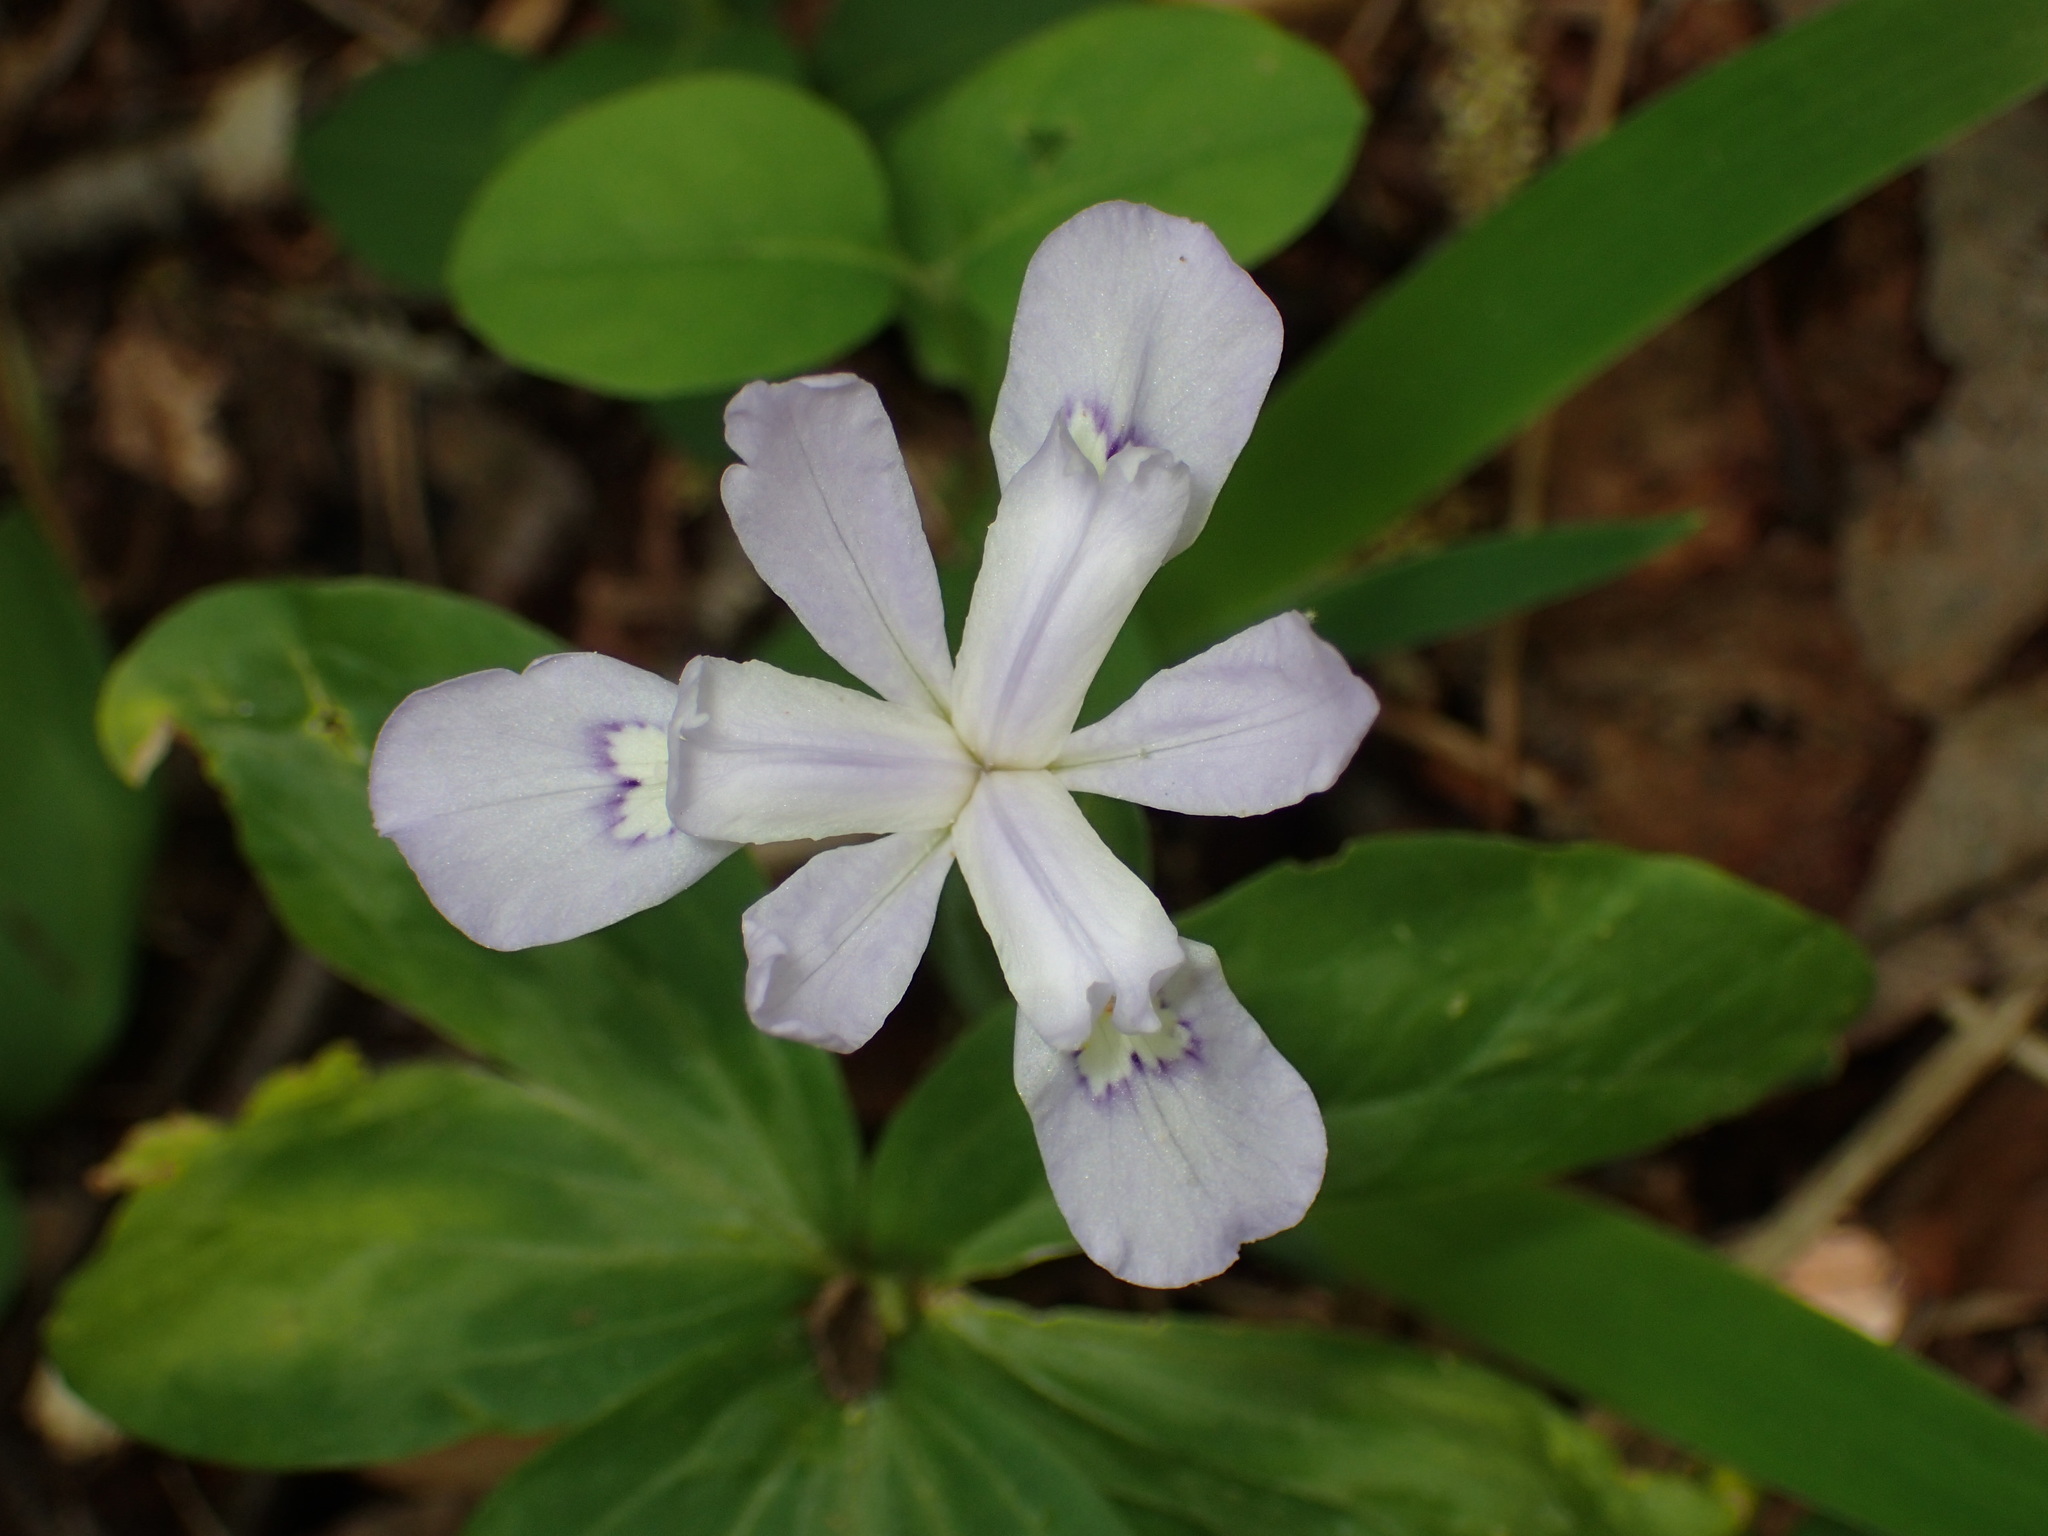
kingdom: Plantae
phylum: Tracheophyta
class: Liliopsida
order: Asparagales
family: Iridaceae
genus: Iris
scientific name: Iris cristata
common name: Crested iris
